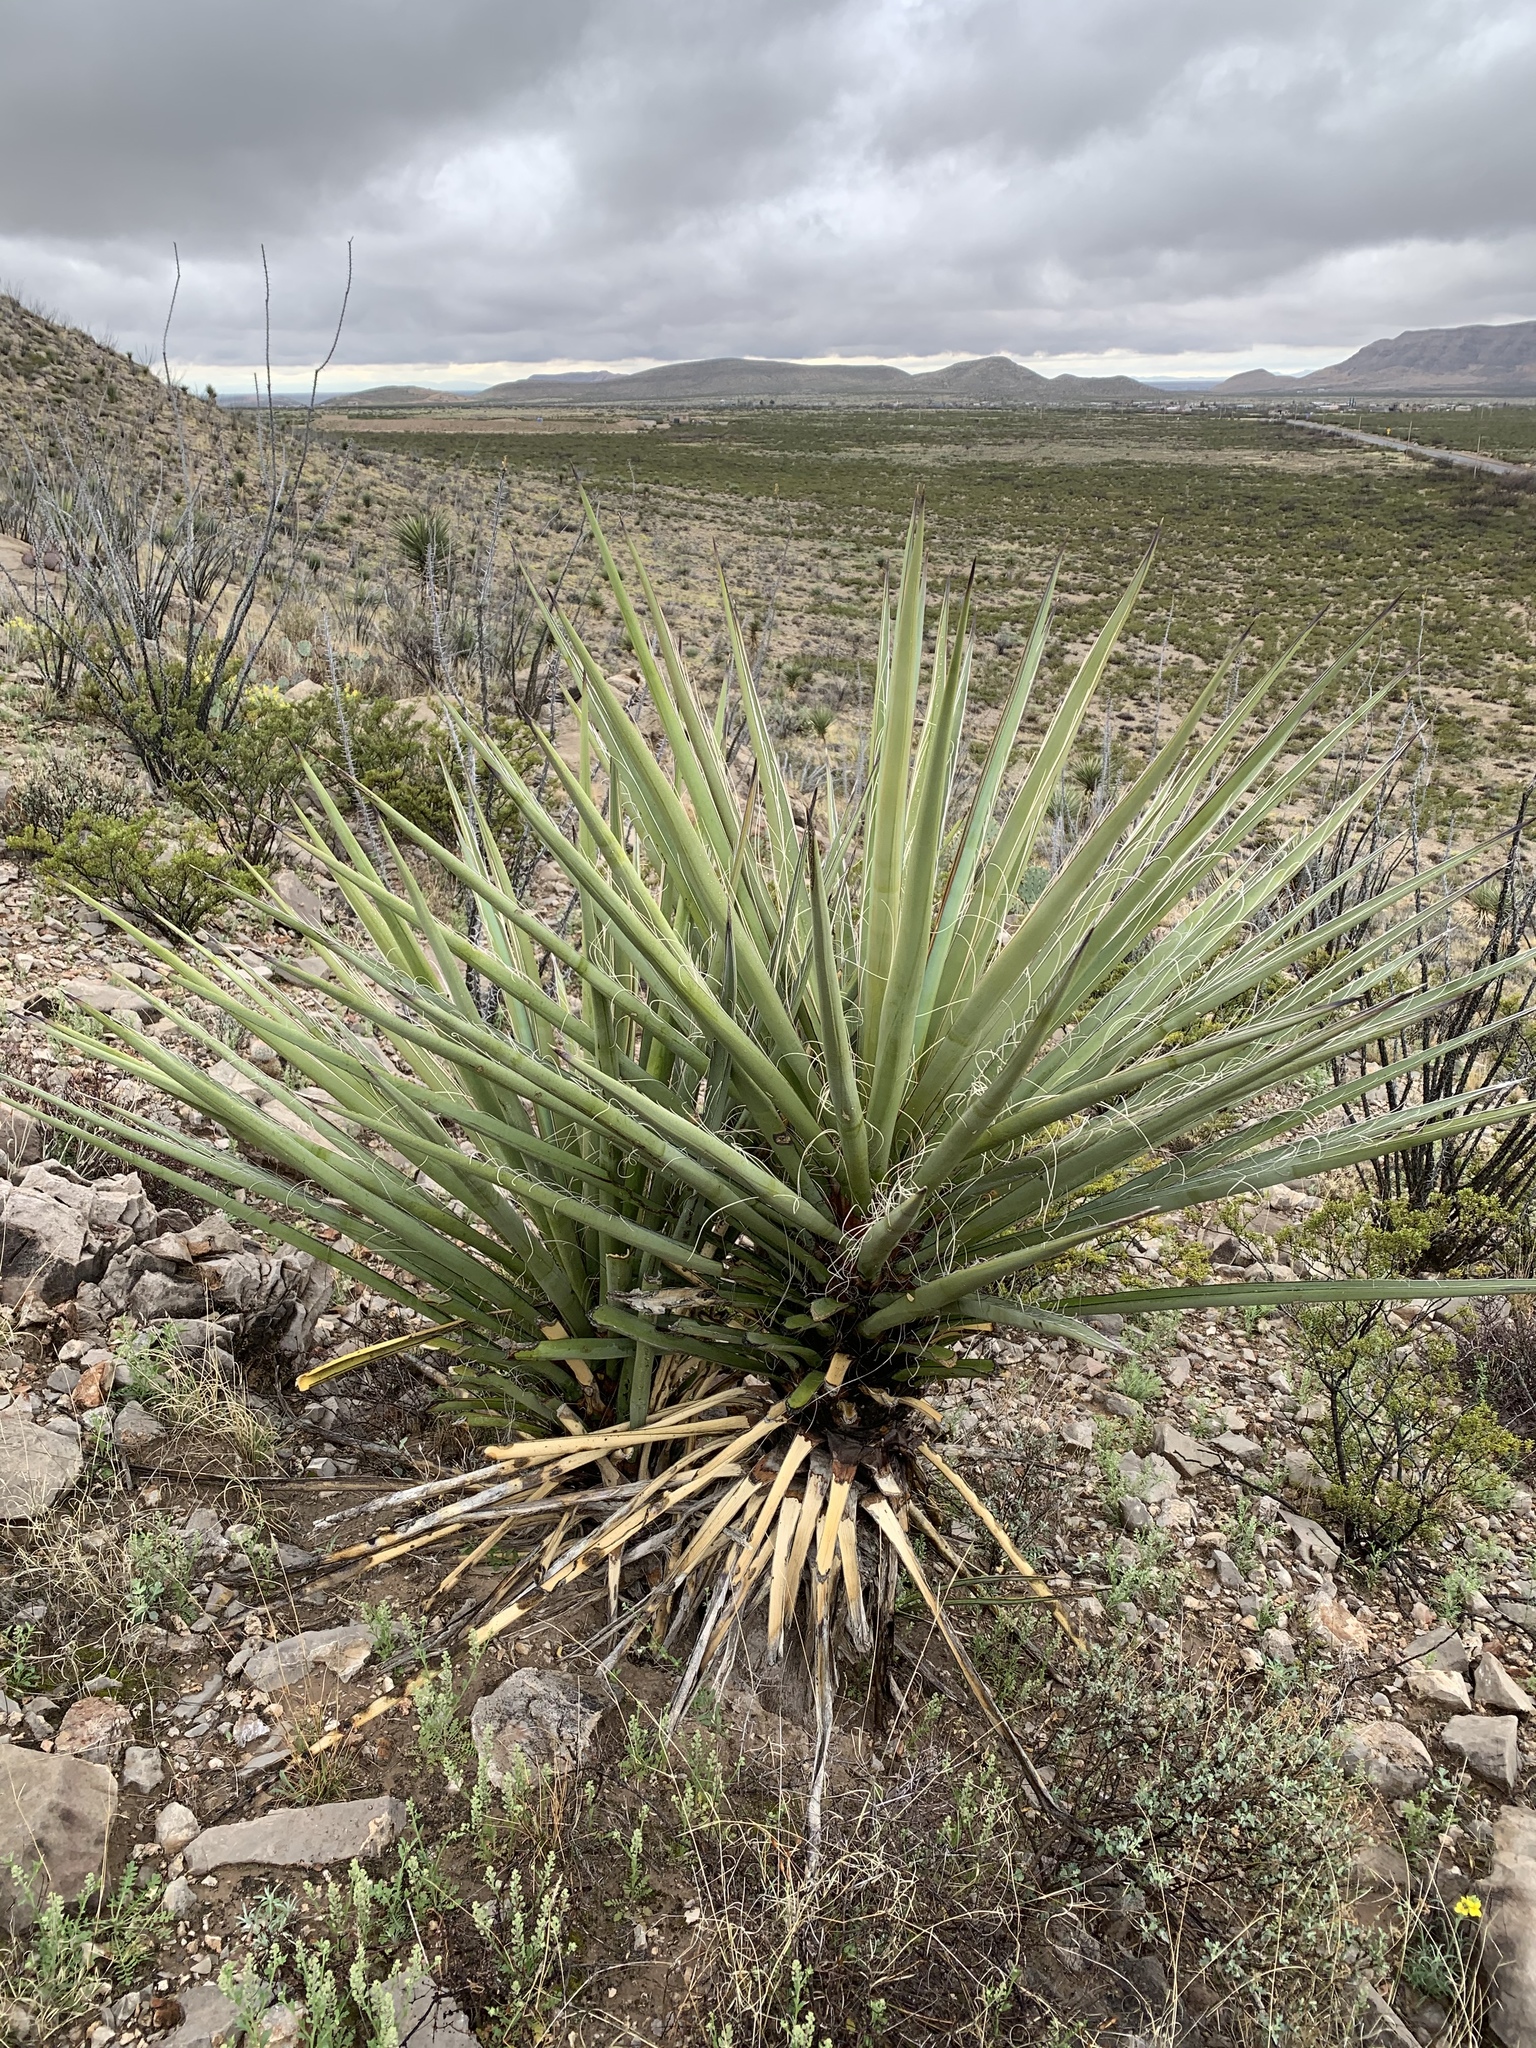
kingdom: Plantae
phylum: Tracheophyta
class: Liliopsida
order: Asparagales
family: Asparagaceae
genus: Yucca
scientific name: Yucca treculiana
